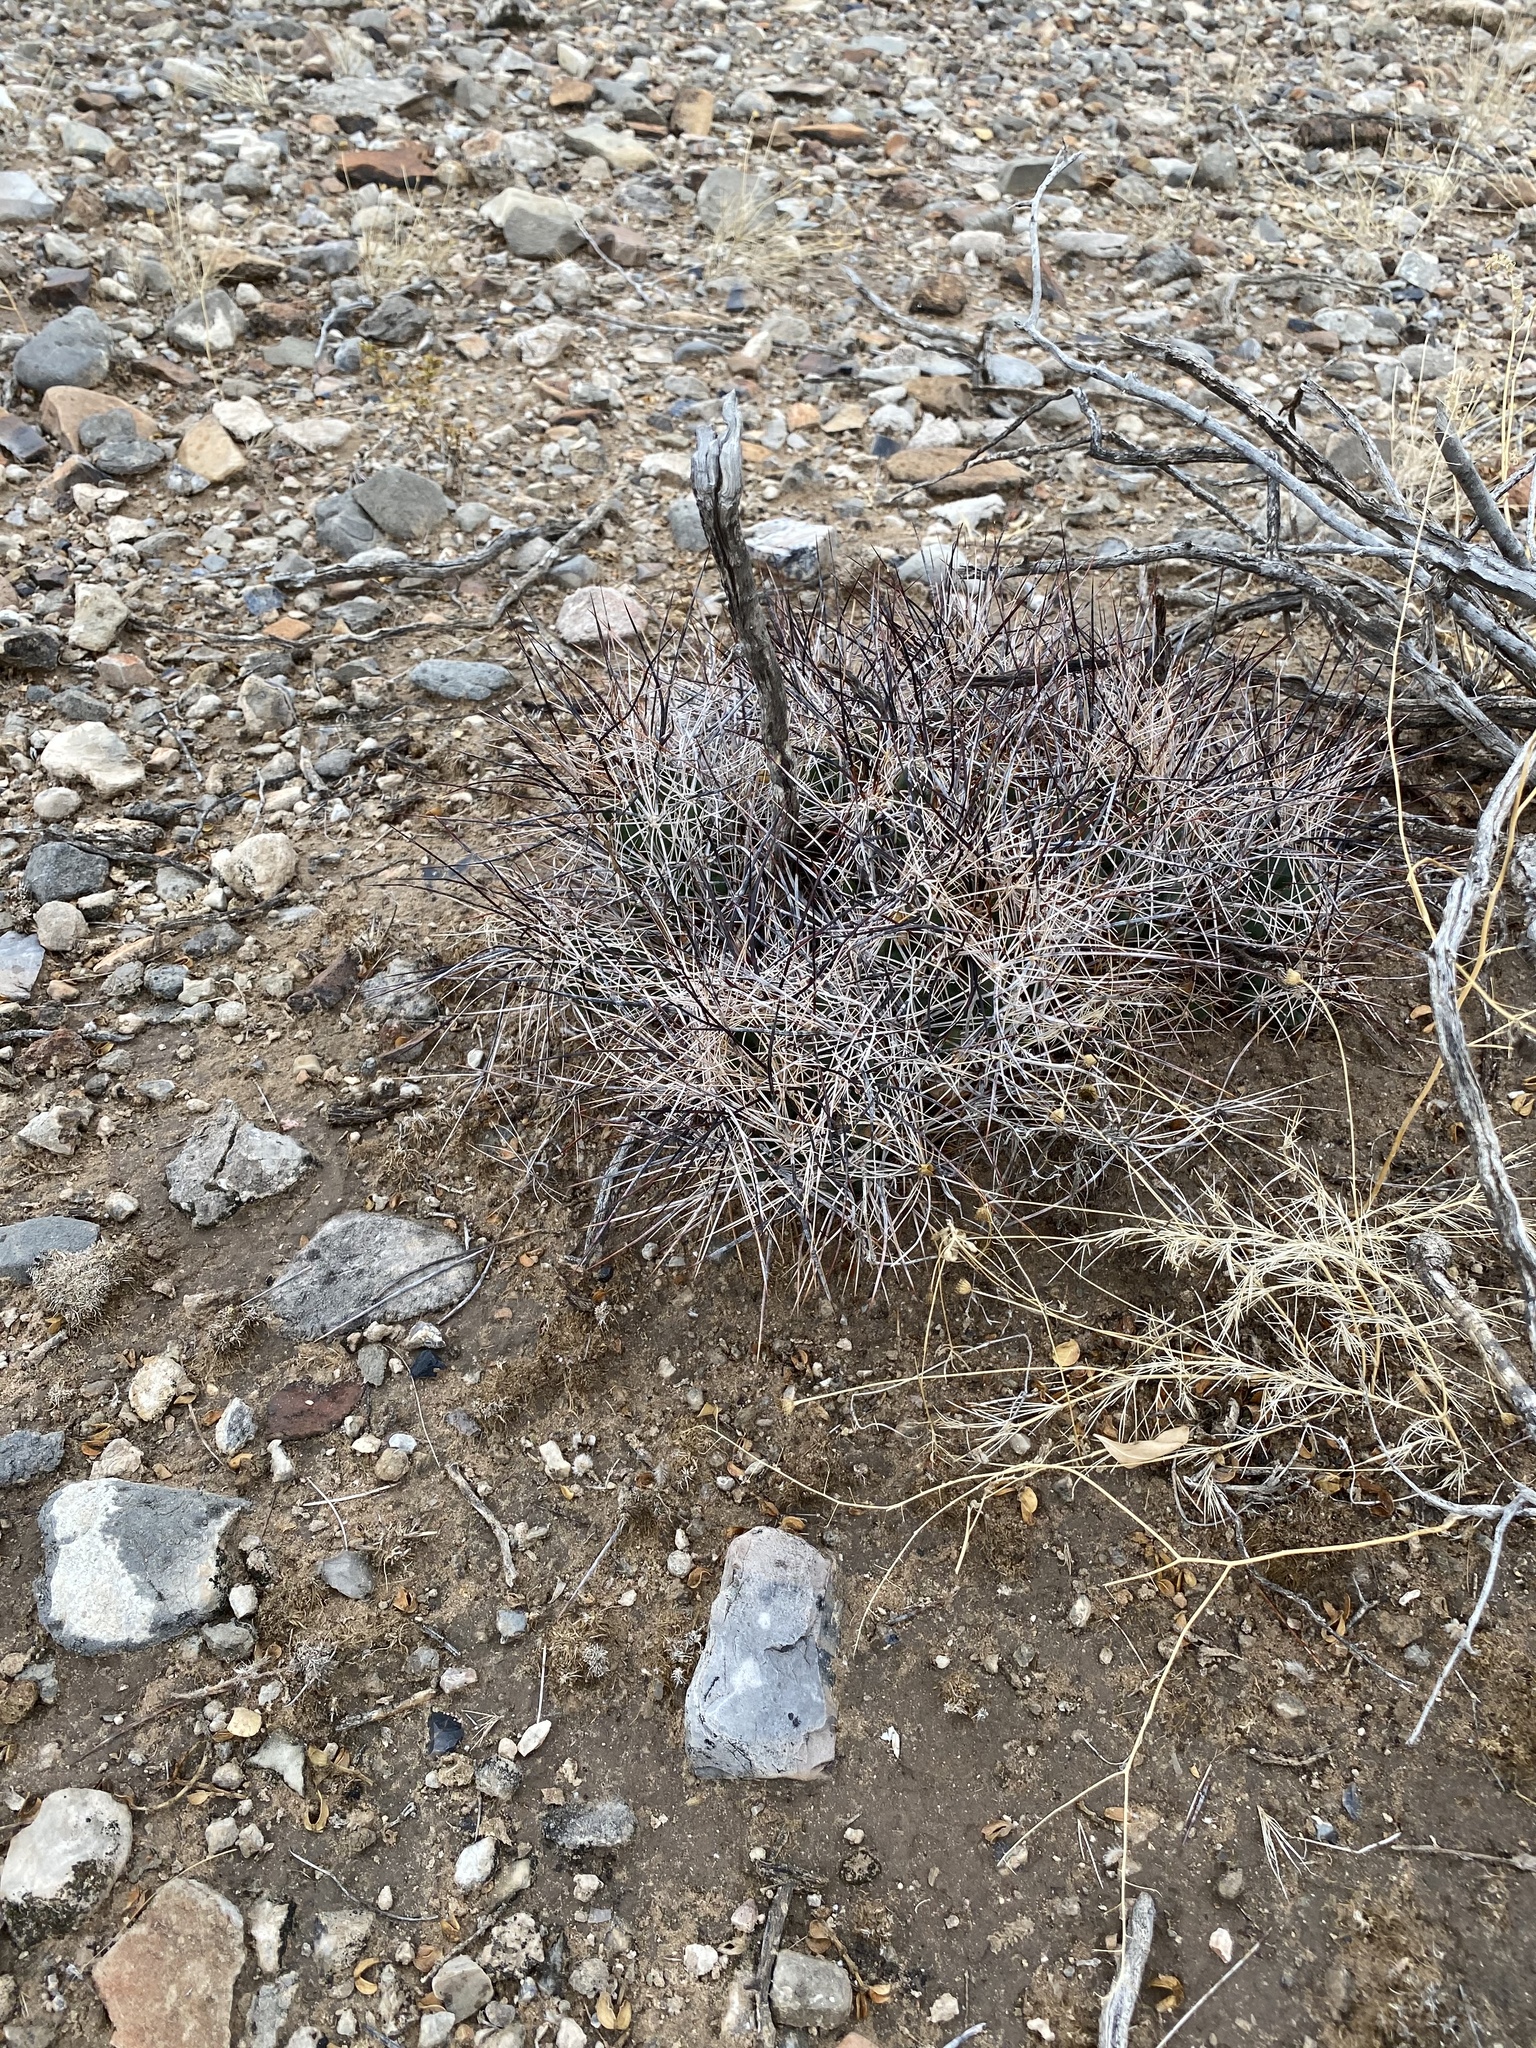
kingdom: Plantae
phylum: Tracheophyta
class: Magnoliopsida
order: Caryophyllales
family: Cactaceae
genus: Coryphantha
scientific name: Coryphantha macromeris
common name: Nipple beehive cactus
